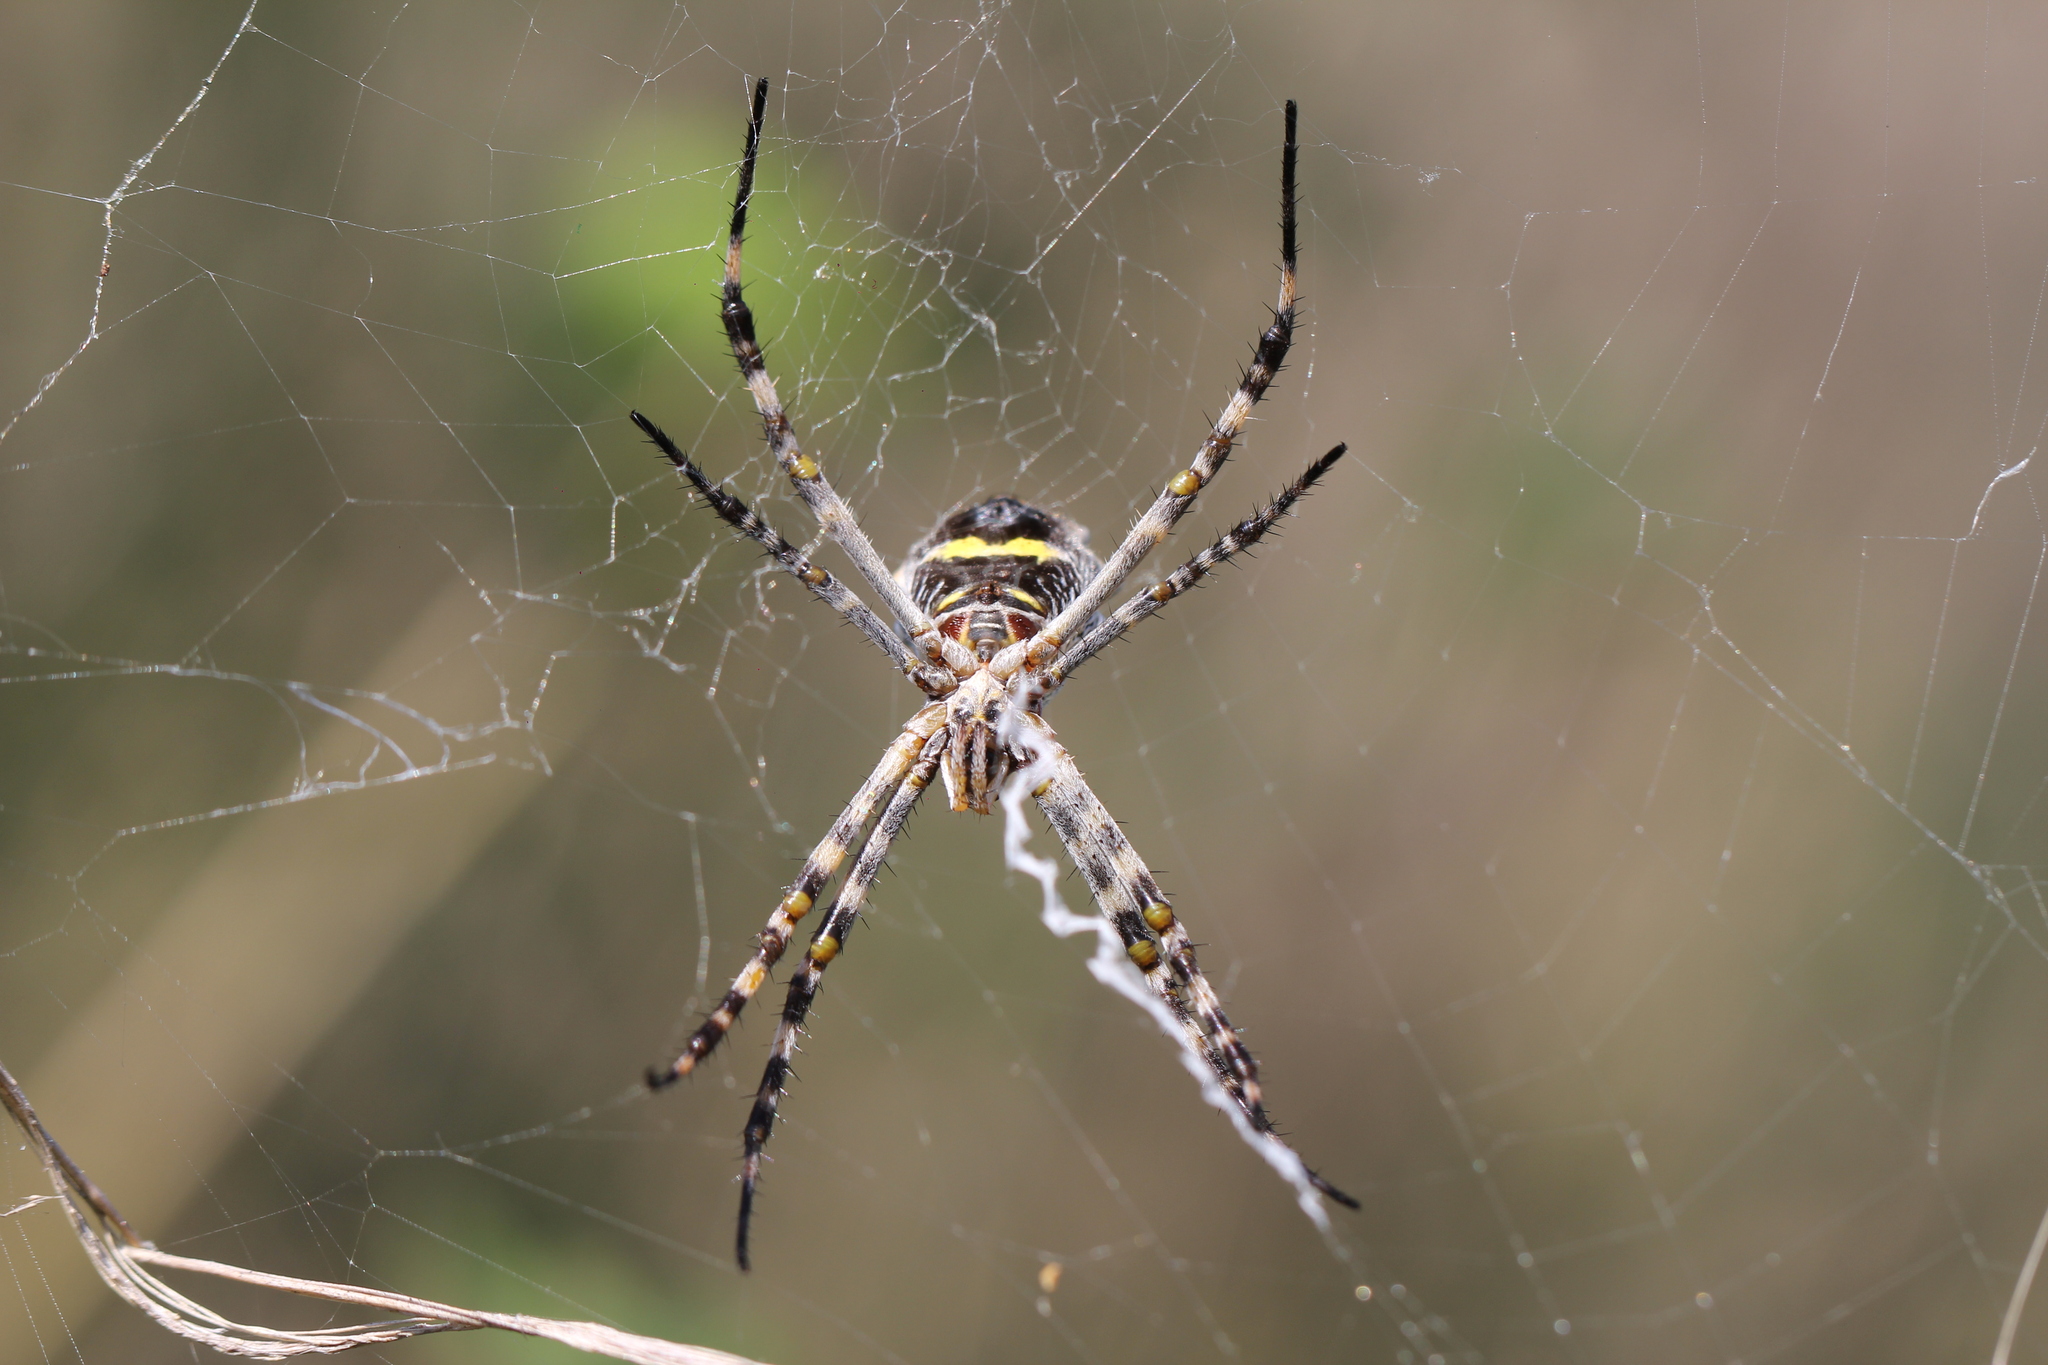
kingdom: Animalia
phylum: Arthropoda
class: Arachnida
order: Araneae
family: Araneidae
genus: Argiope
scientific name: Argiope argentata
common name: Orb weavers
